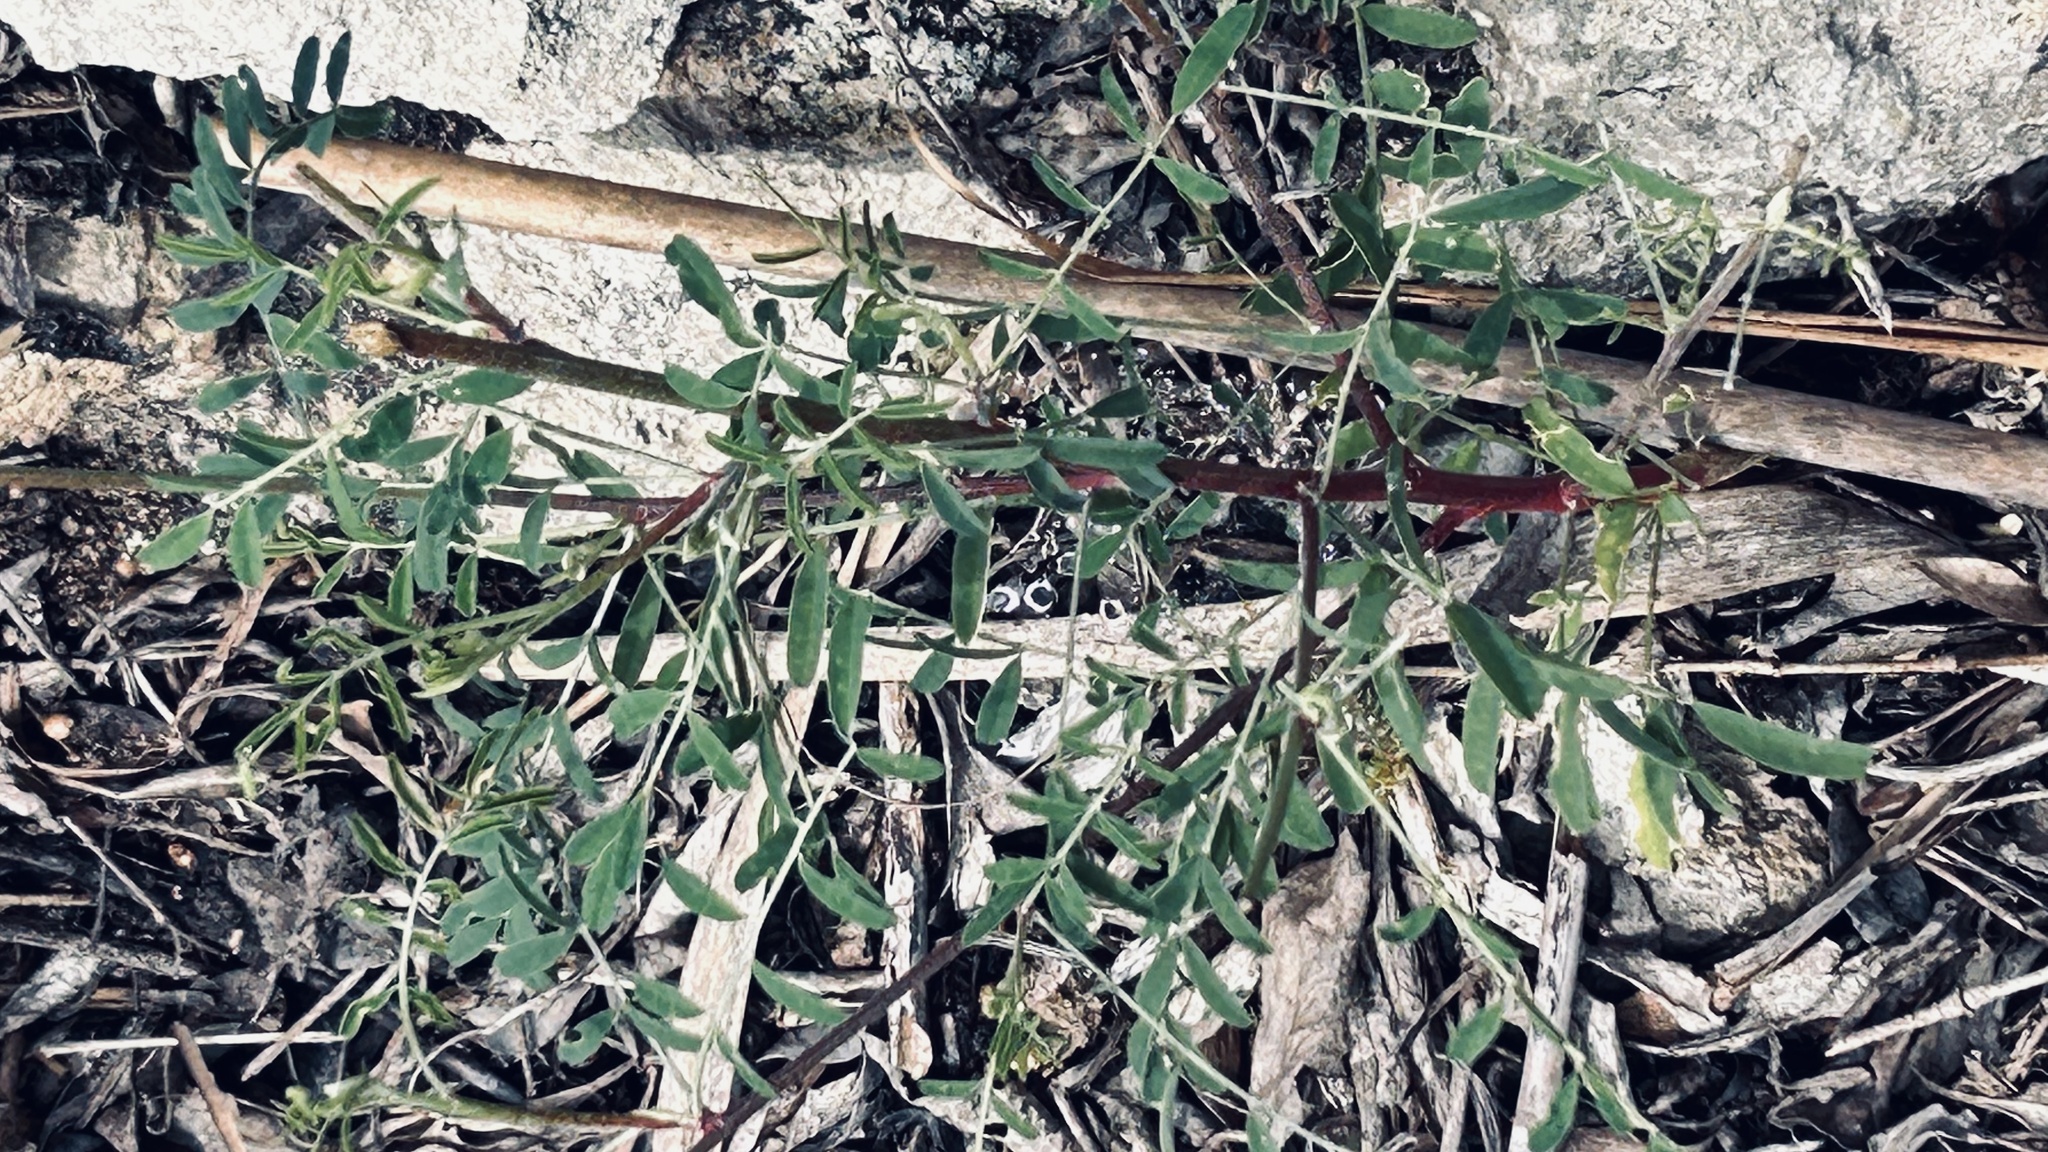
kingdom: Plantae
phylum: Tracheophyta
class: Magnoliopsida
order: Fabales
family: Fabaceae
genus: Lessertia
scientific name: Lessertia frutescens
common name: Balloon-pea
